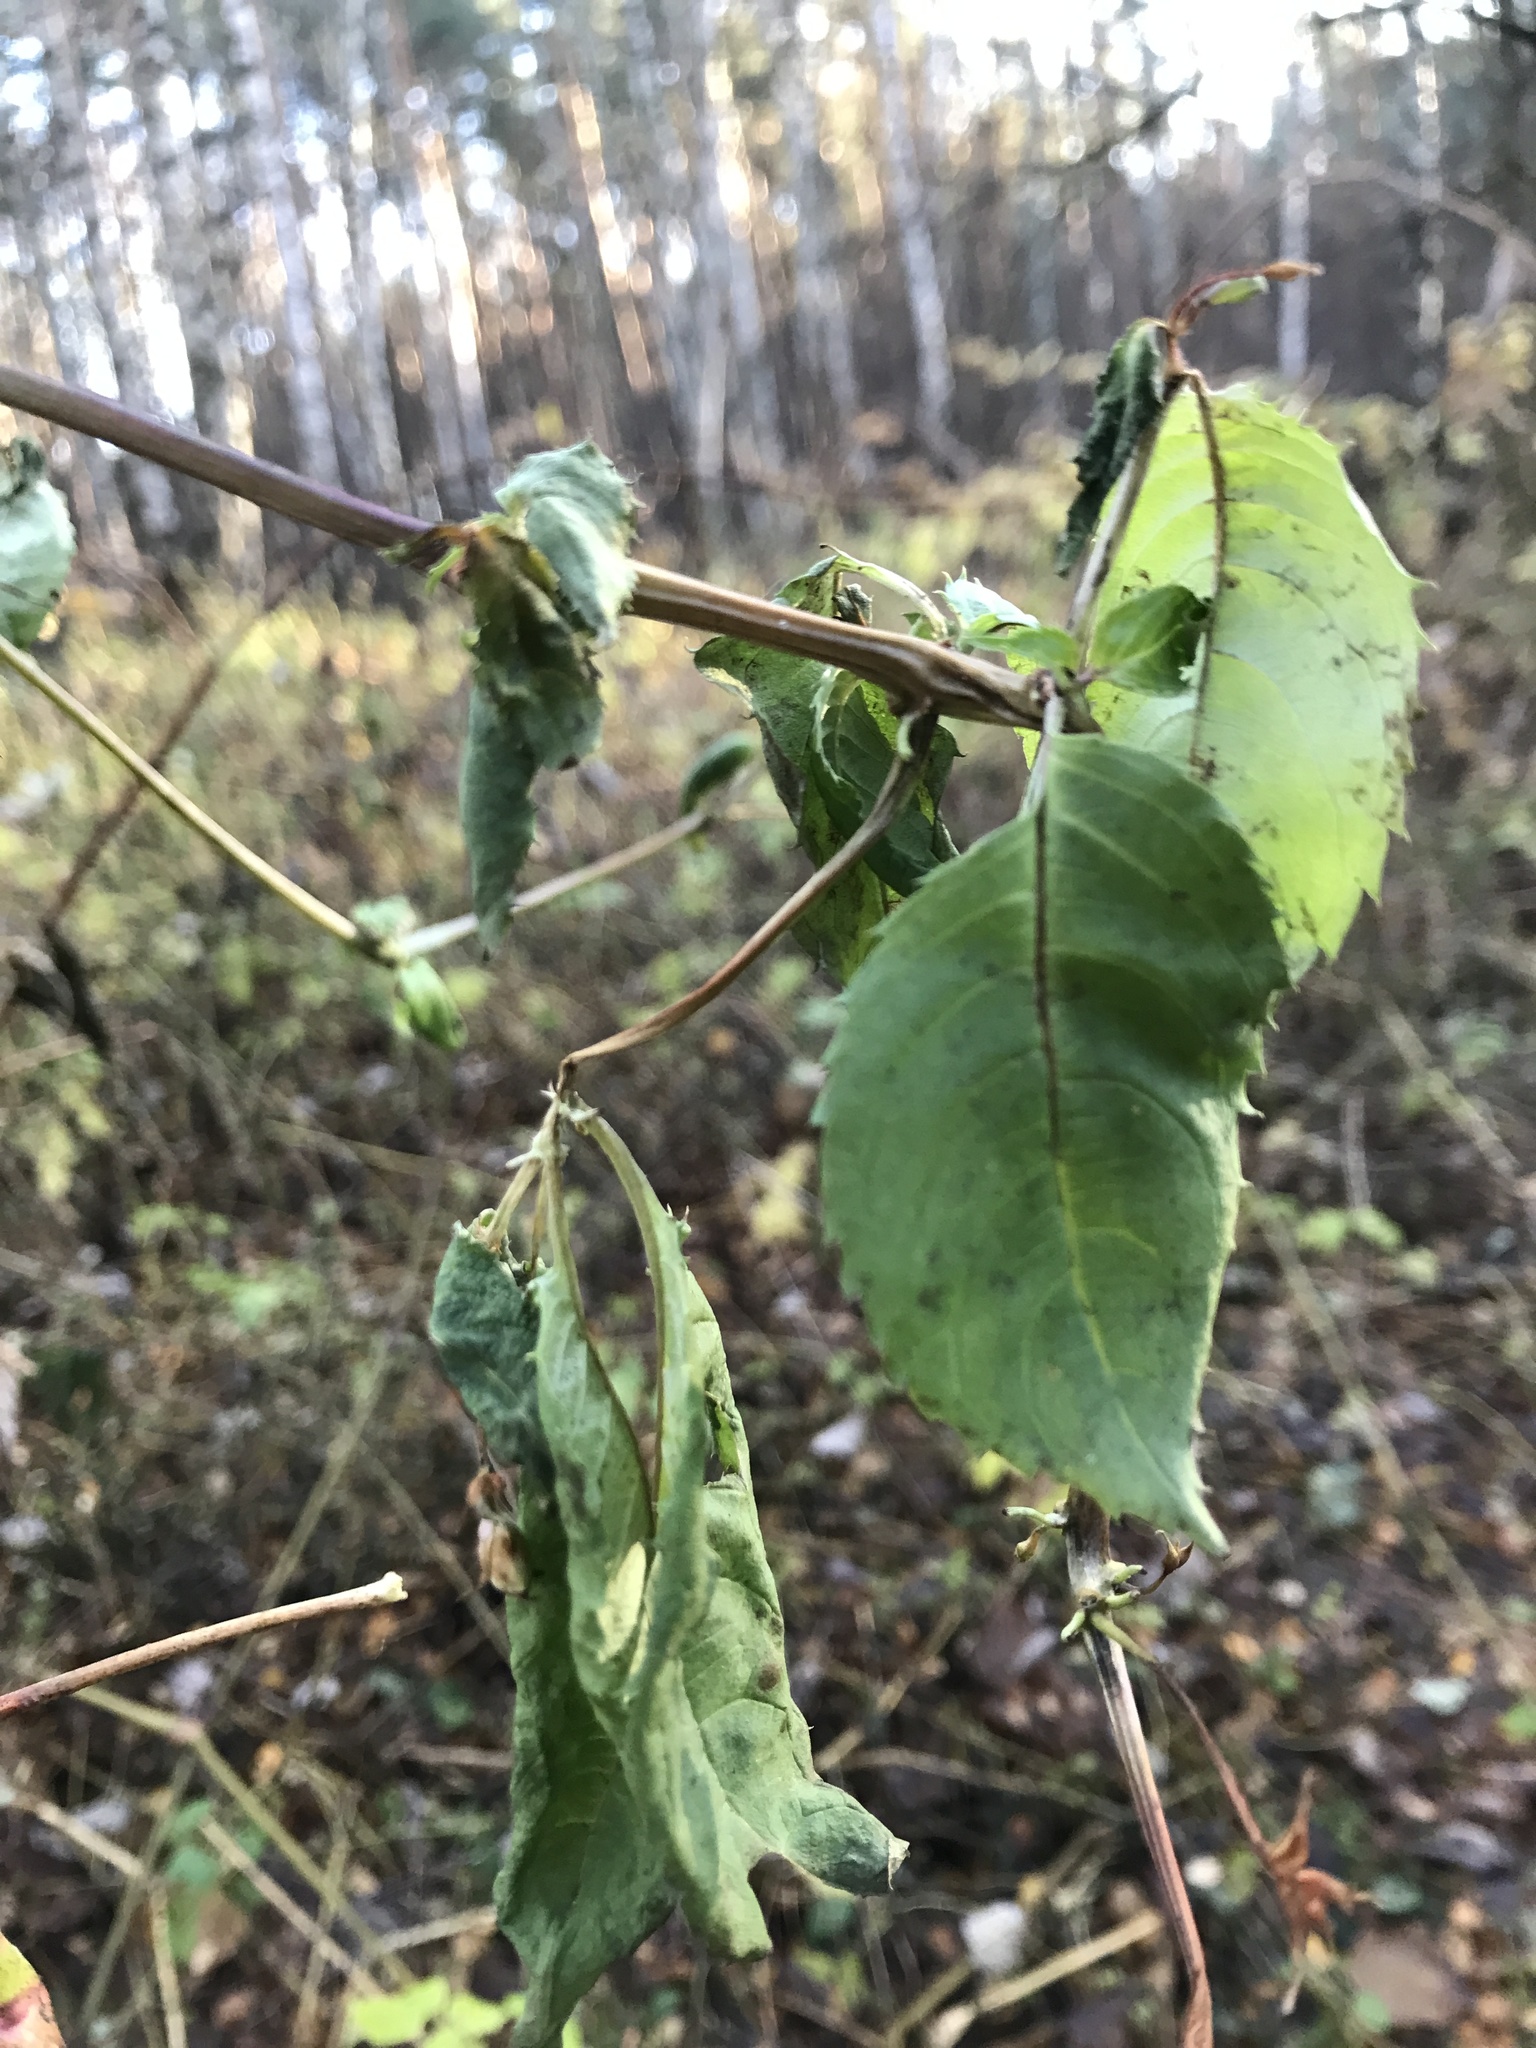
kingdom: Plantae
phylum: Tracheophyta
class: Magnoliopsida
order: Ericales
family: Balsaminaceae
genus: Impatiens
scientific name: Impatiens glandulifera
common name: Himalayan balsam
